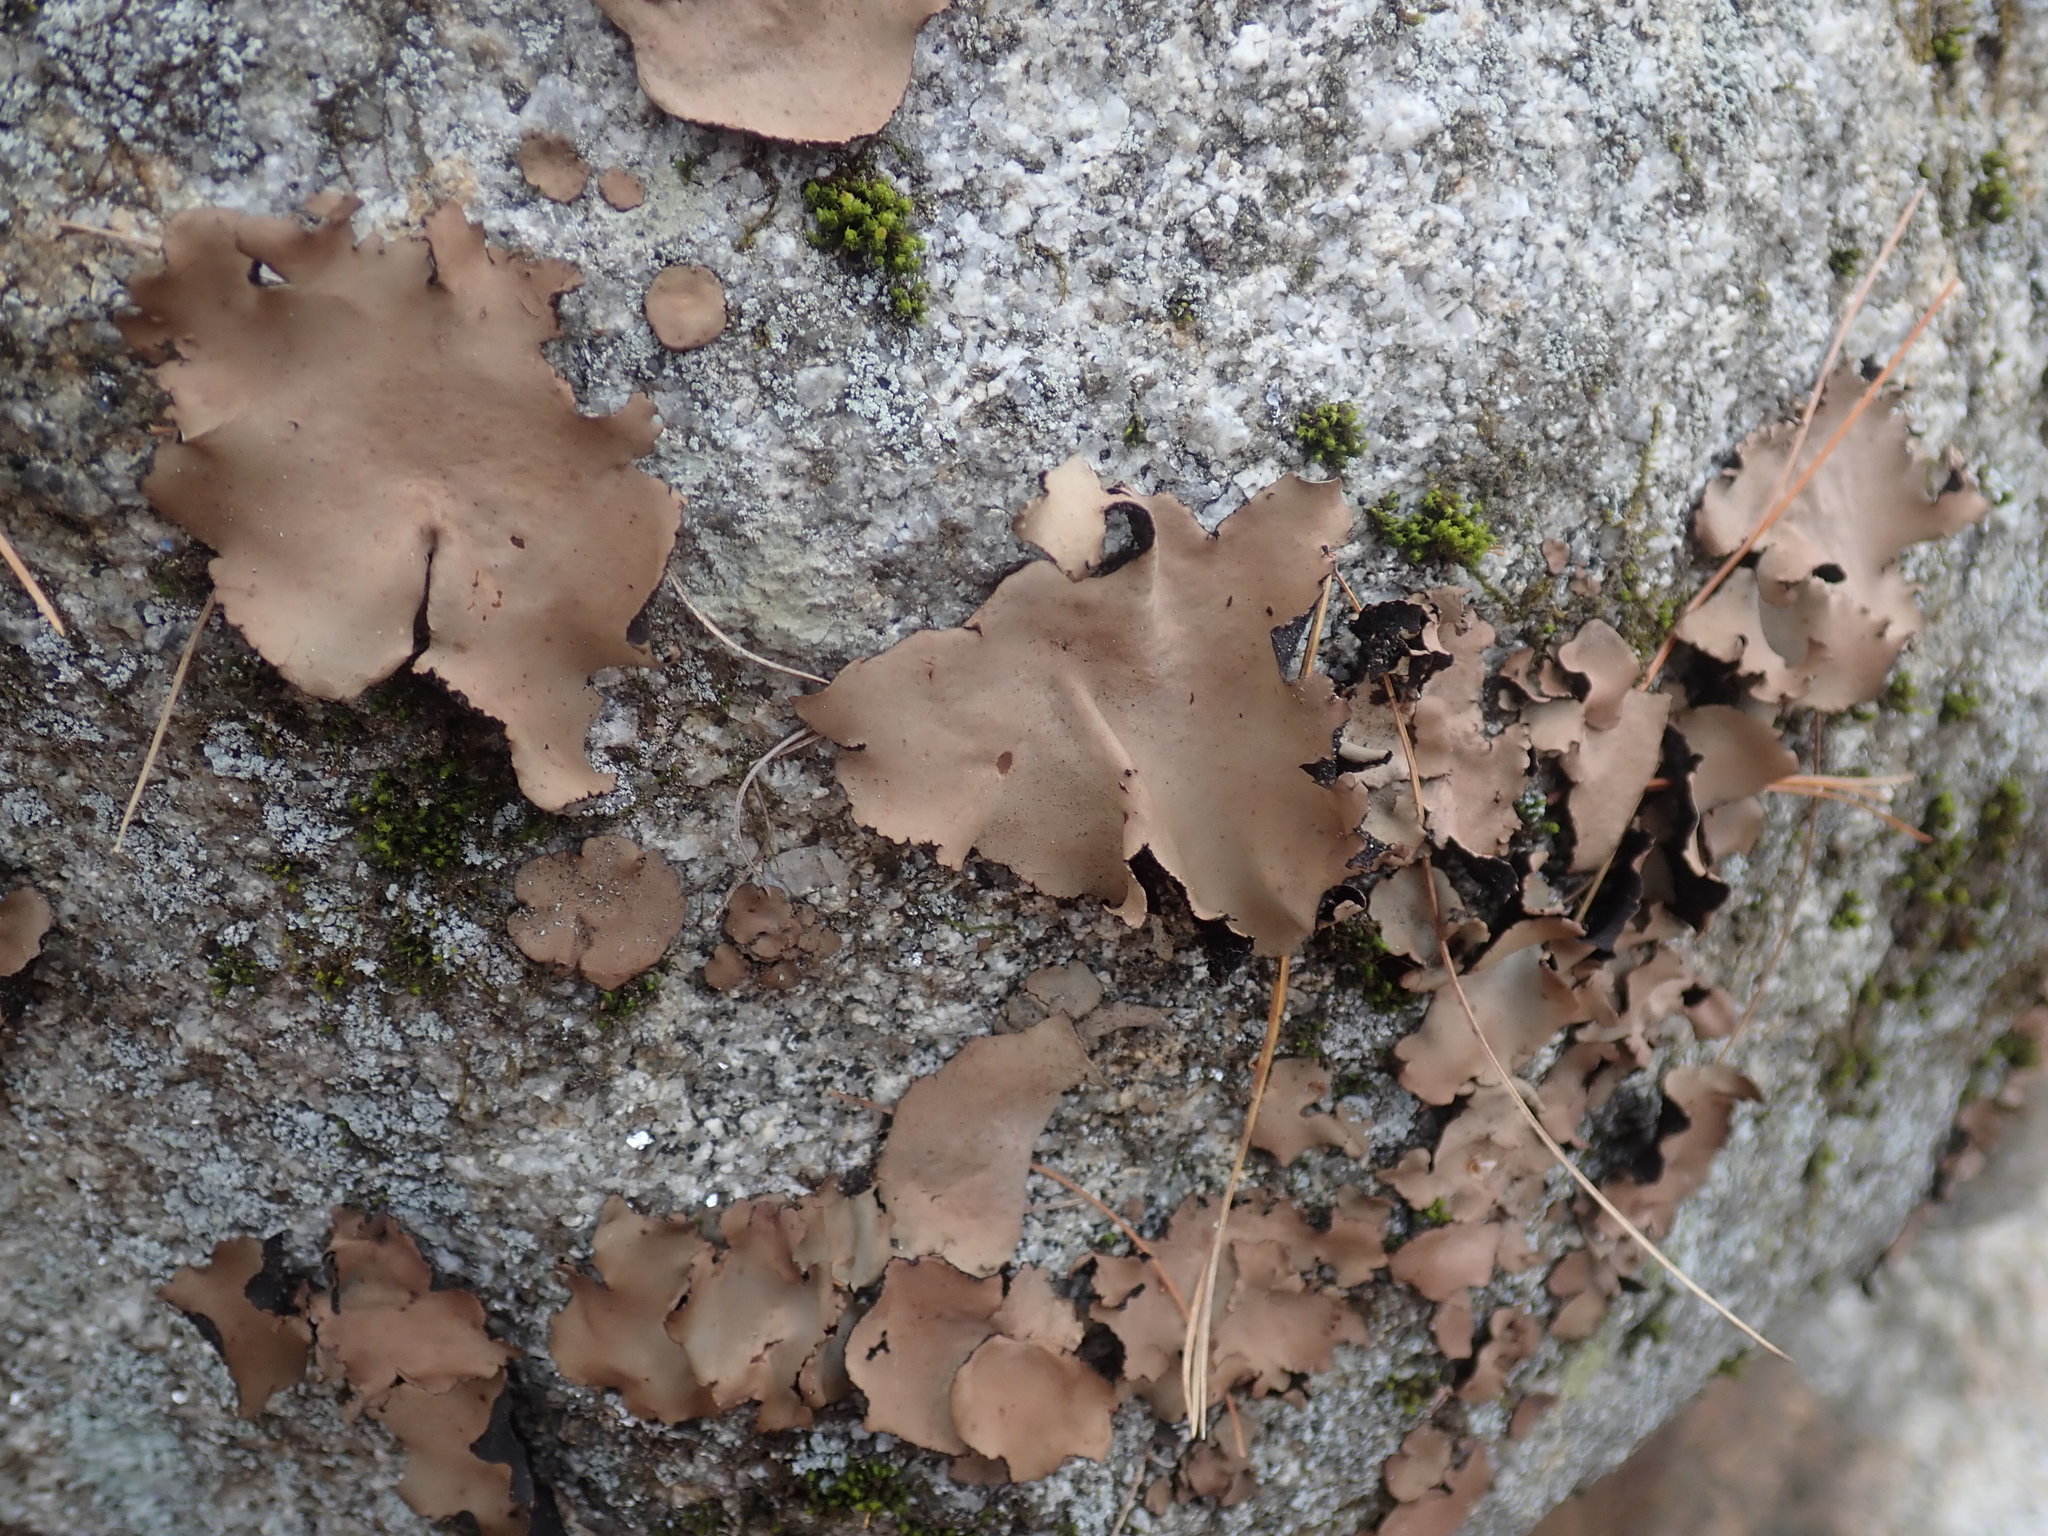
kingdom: Fungi
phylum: Ascomycota
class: Lecanoromycetes
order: Umbilicariales
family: Umbilicariaceae
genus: Umbilicaria
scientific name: Umbilicaria mammulata
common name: Smooth rock tripe
